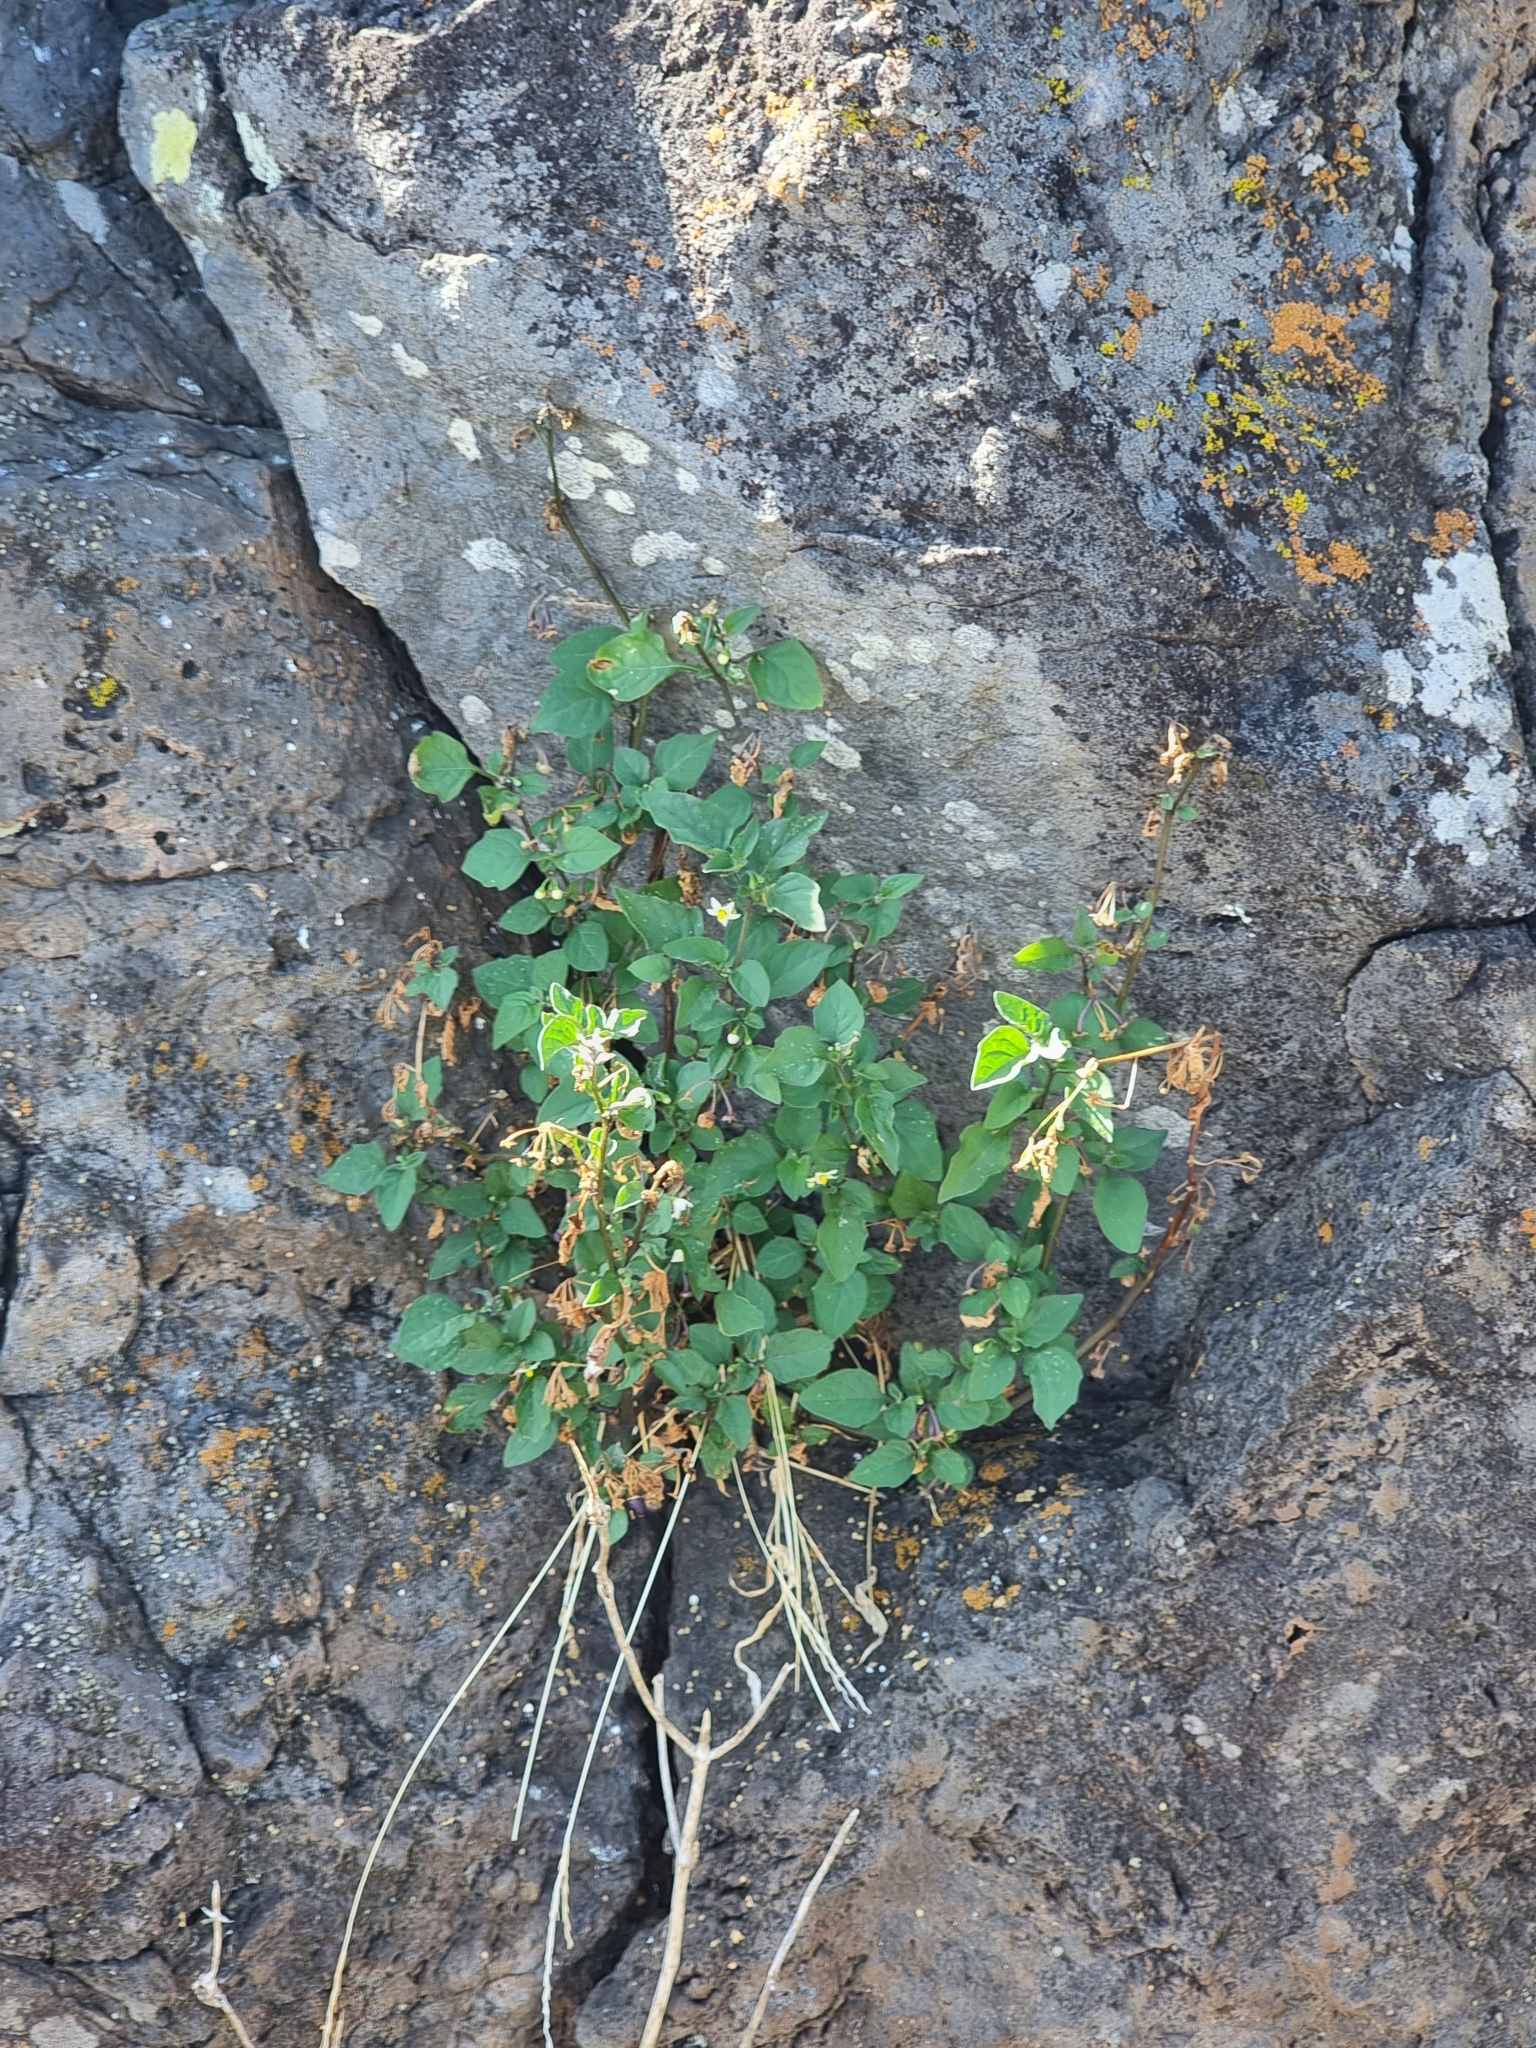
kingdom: Plantae
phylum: Tracheophyta
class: Magnoliopsida
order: Solanales
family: Solanaceae
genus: Solanum
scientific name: Solanum nigrum
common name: Black nightshade
